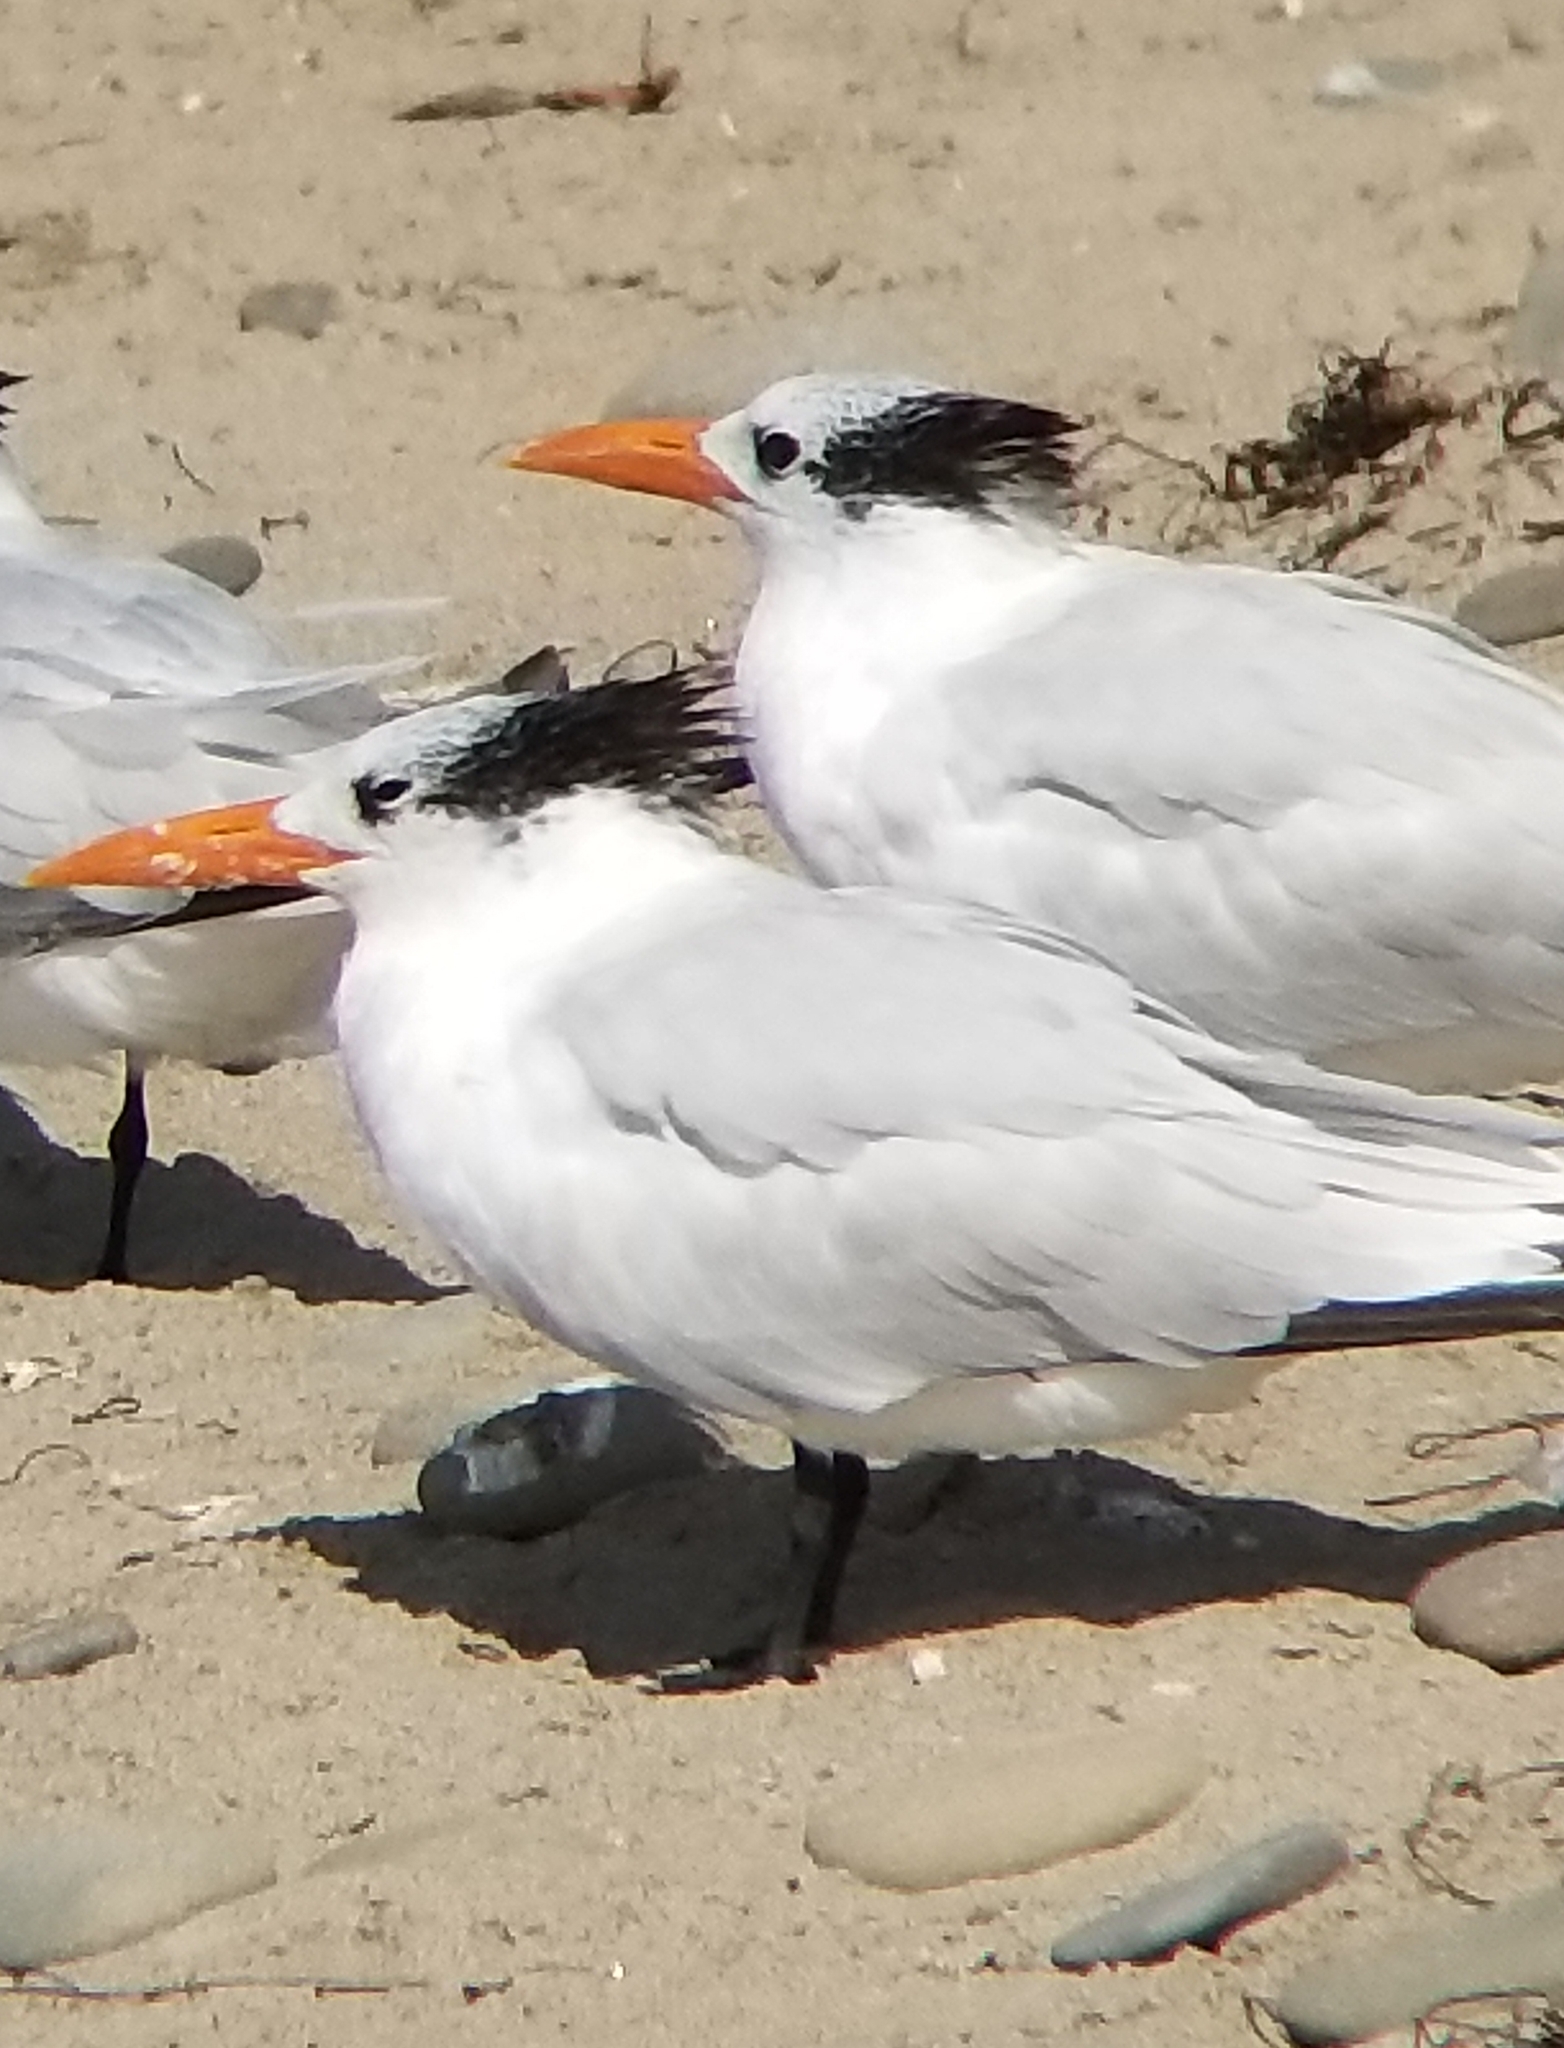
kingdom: Animalia
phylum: Chordata
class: Aves
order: Charadriiformes
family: Laridae
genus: Thalasseus
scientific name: Thalasseus maximus
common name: Royal tern
